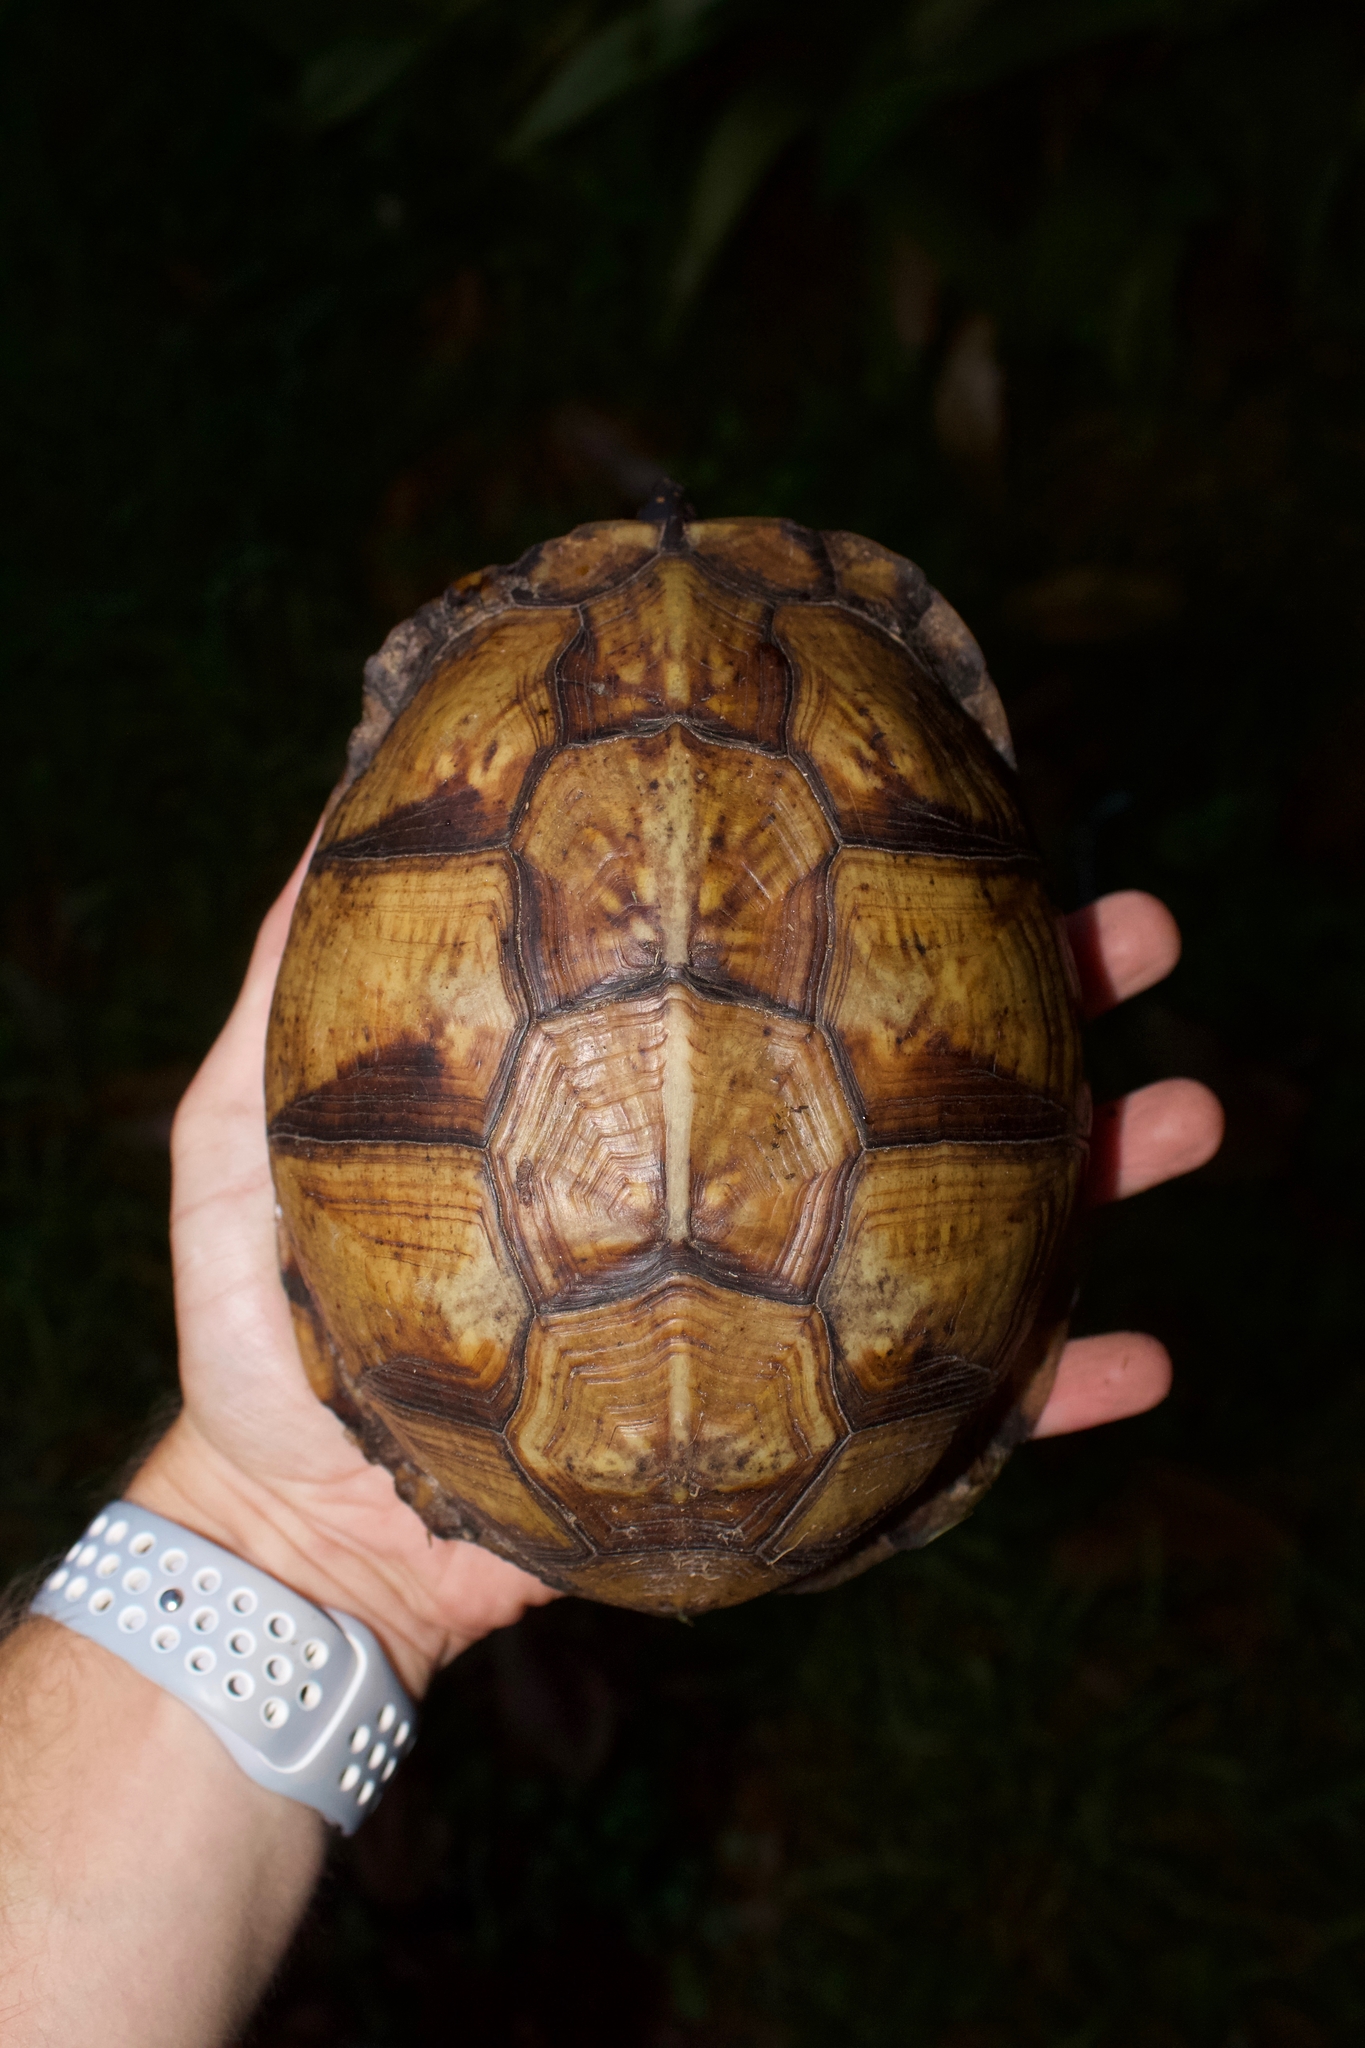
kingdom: Animalia
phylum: Chordata
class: Testudines
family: Emydidae
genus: Terrapene
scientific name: Terrapene carolina
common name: Common box turtle
